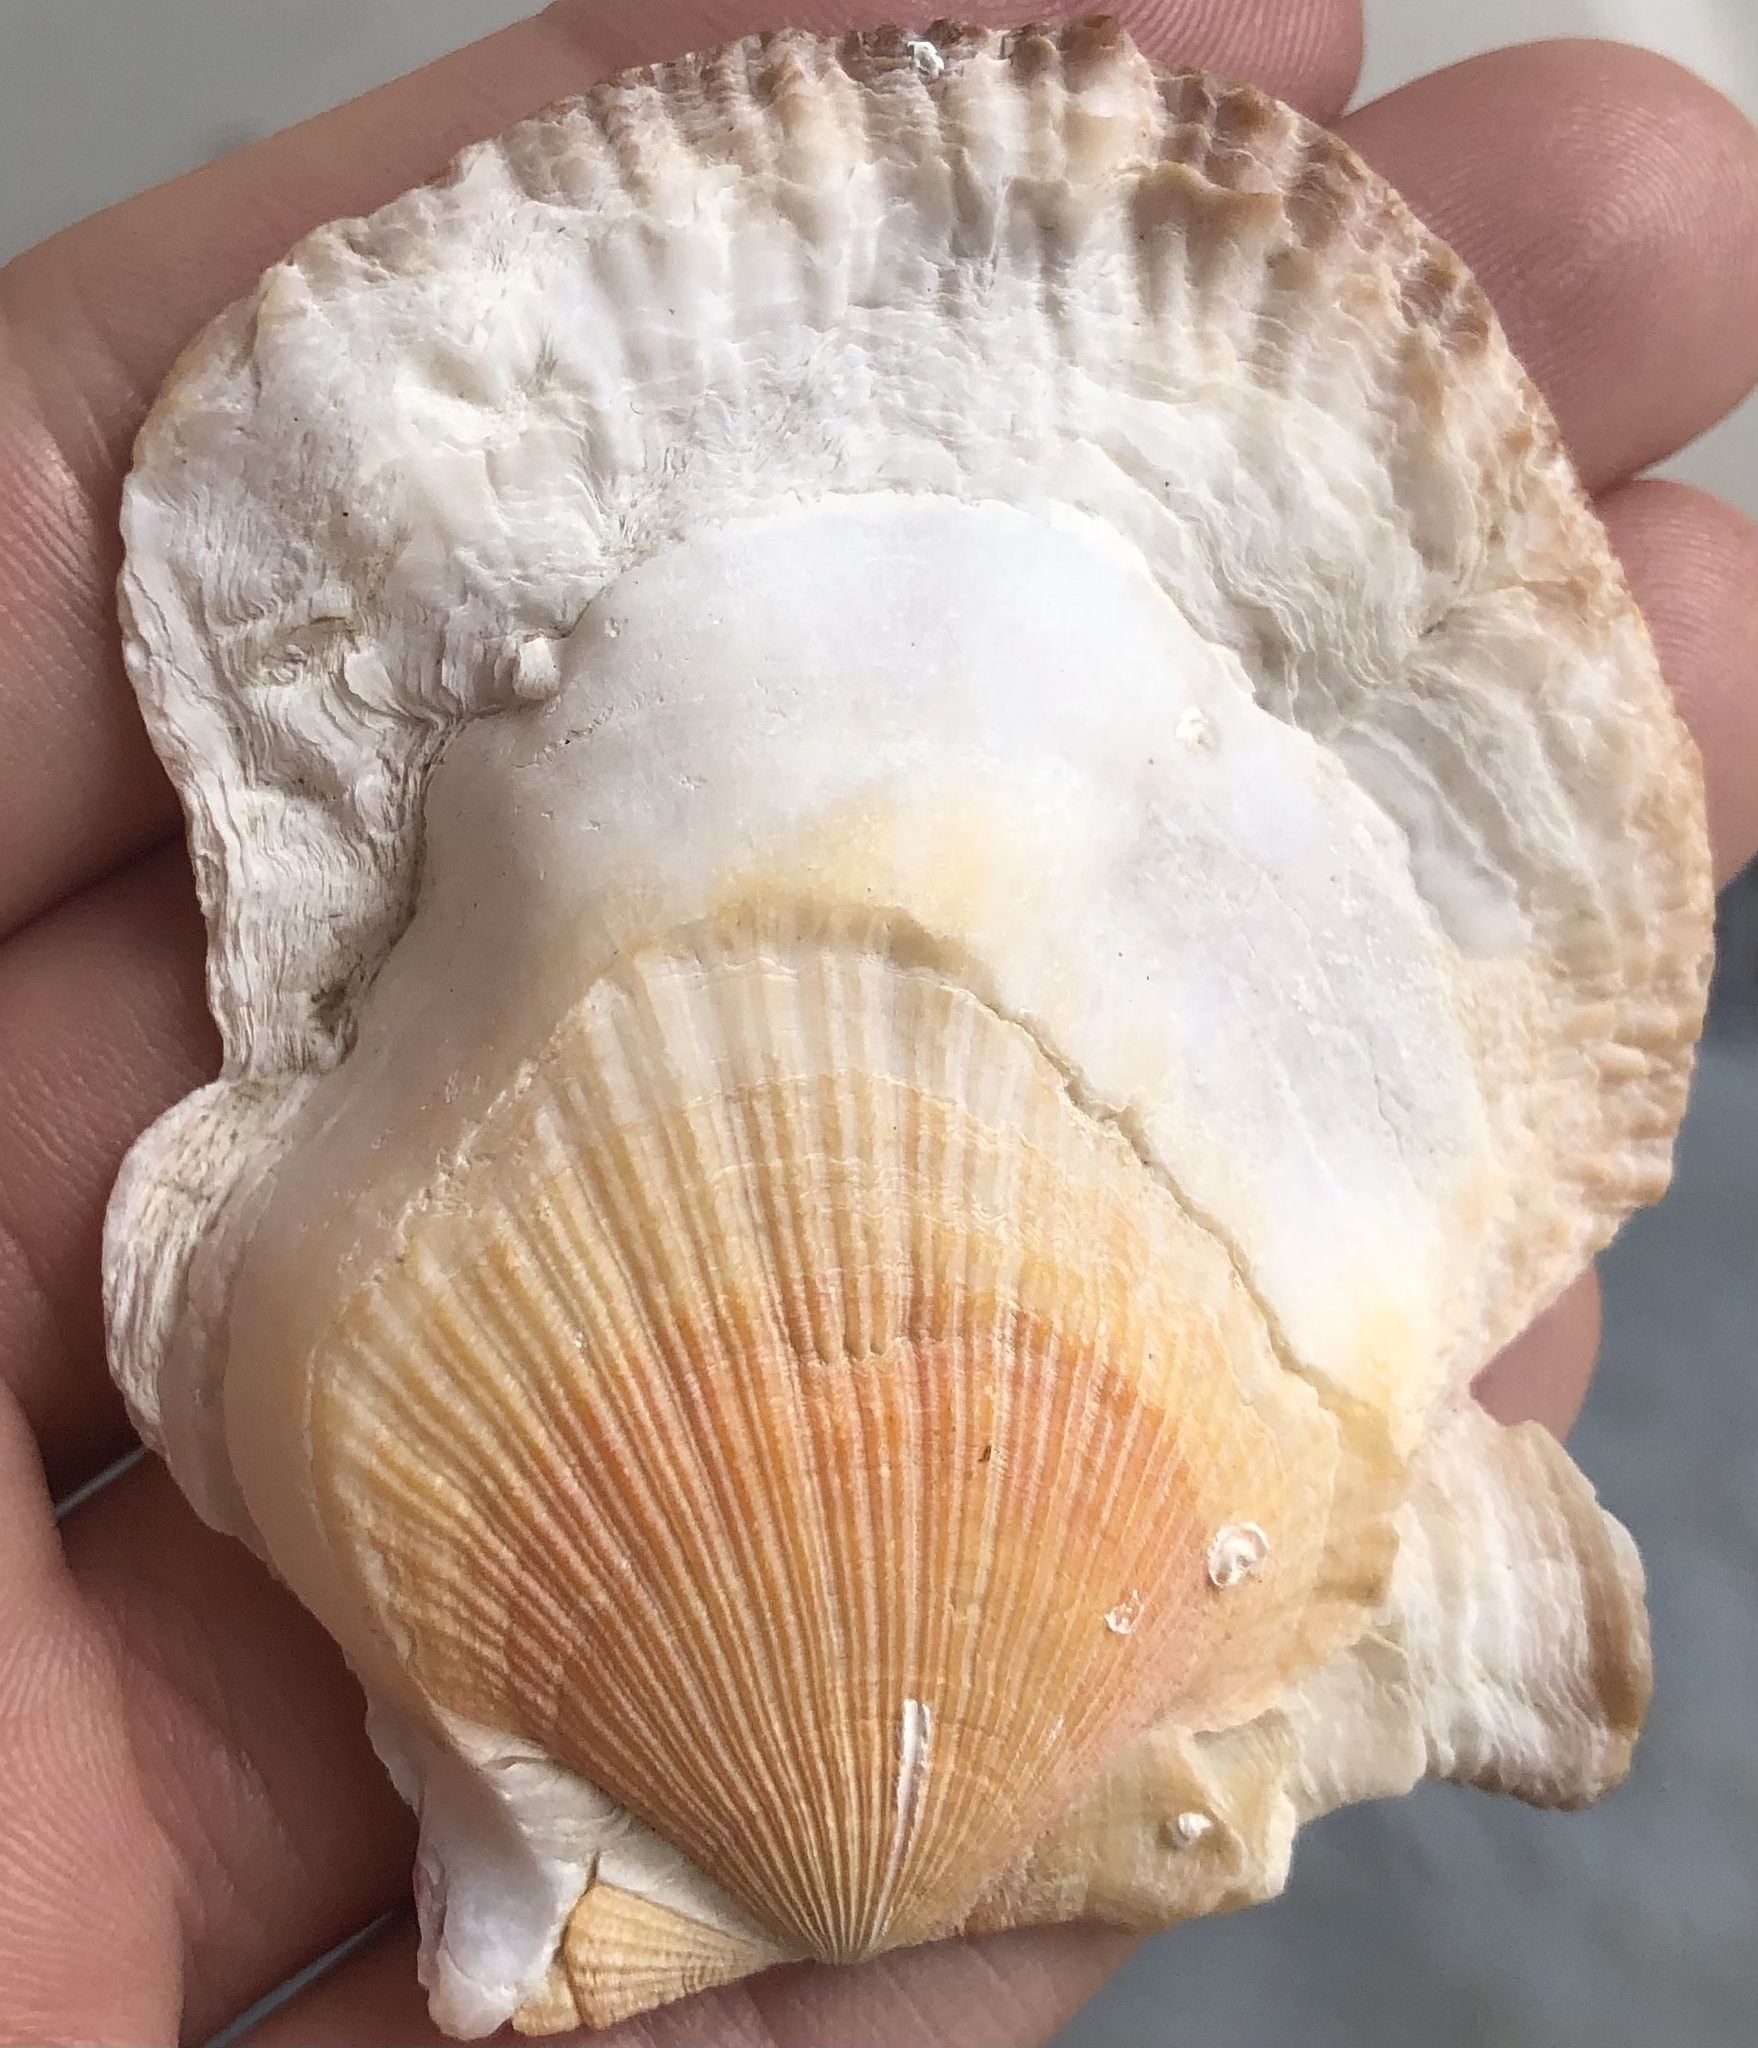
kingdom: Animalia
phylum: Mollusca
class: Bivalvia
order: Pectinida
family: Pectinidae
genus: Crassadoma
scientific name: Crassadoma gigantea
